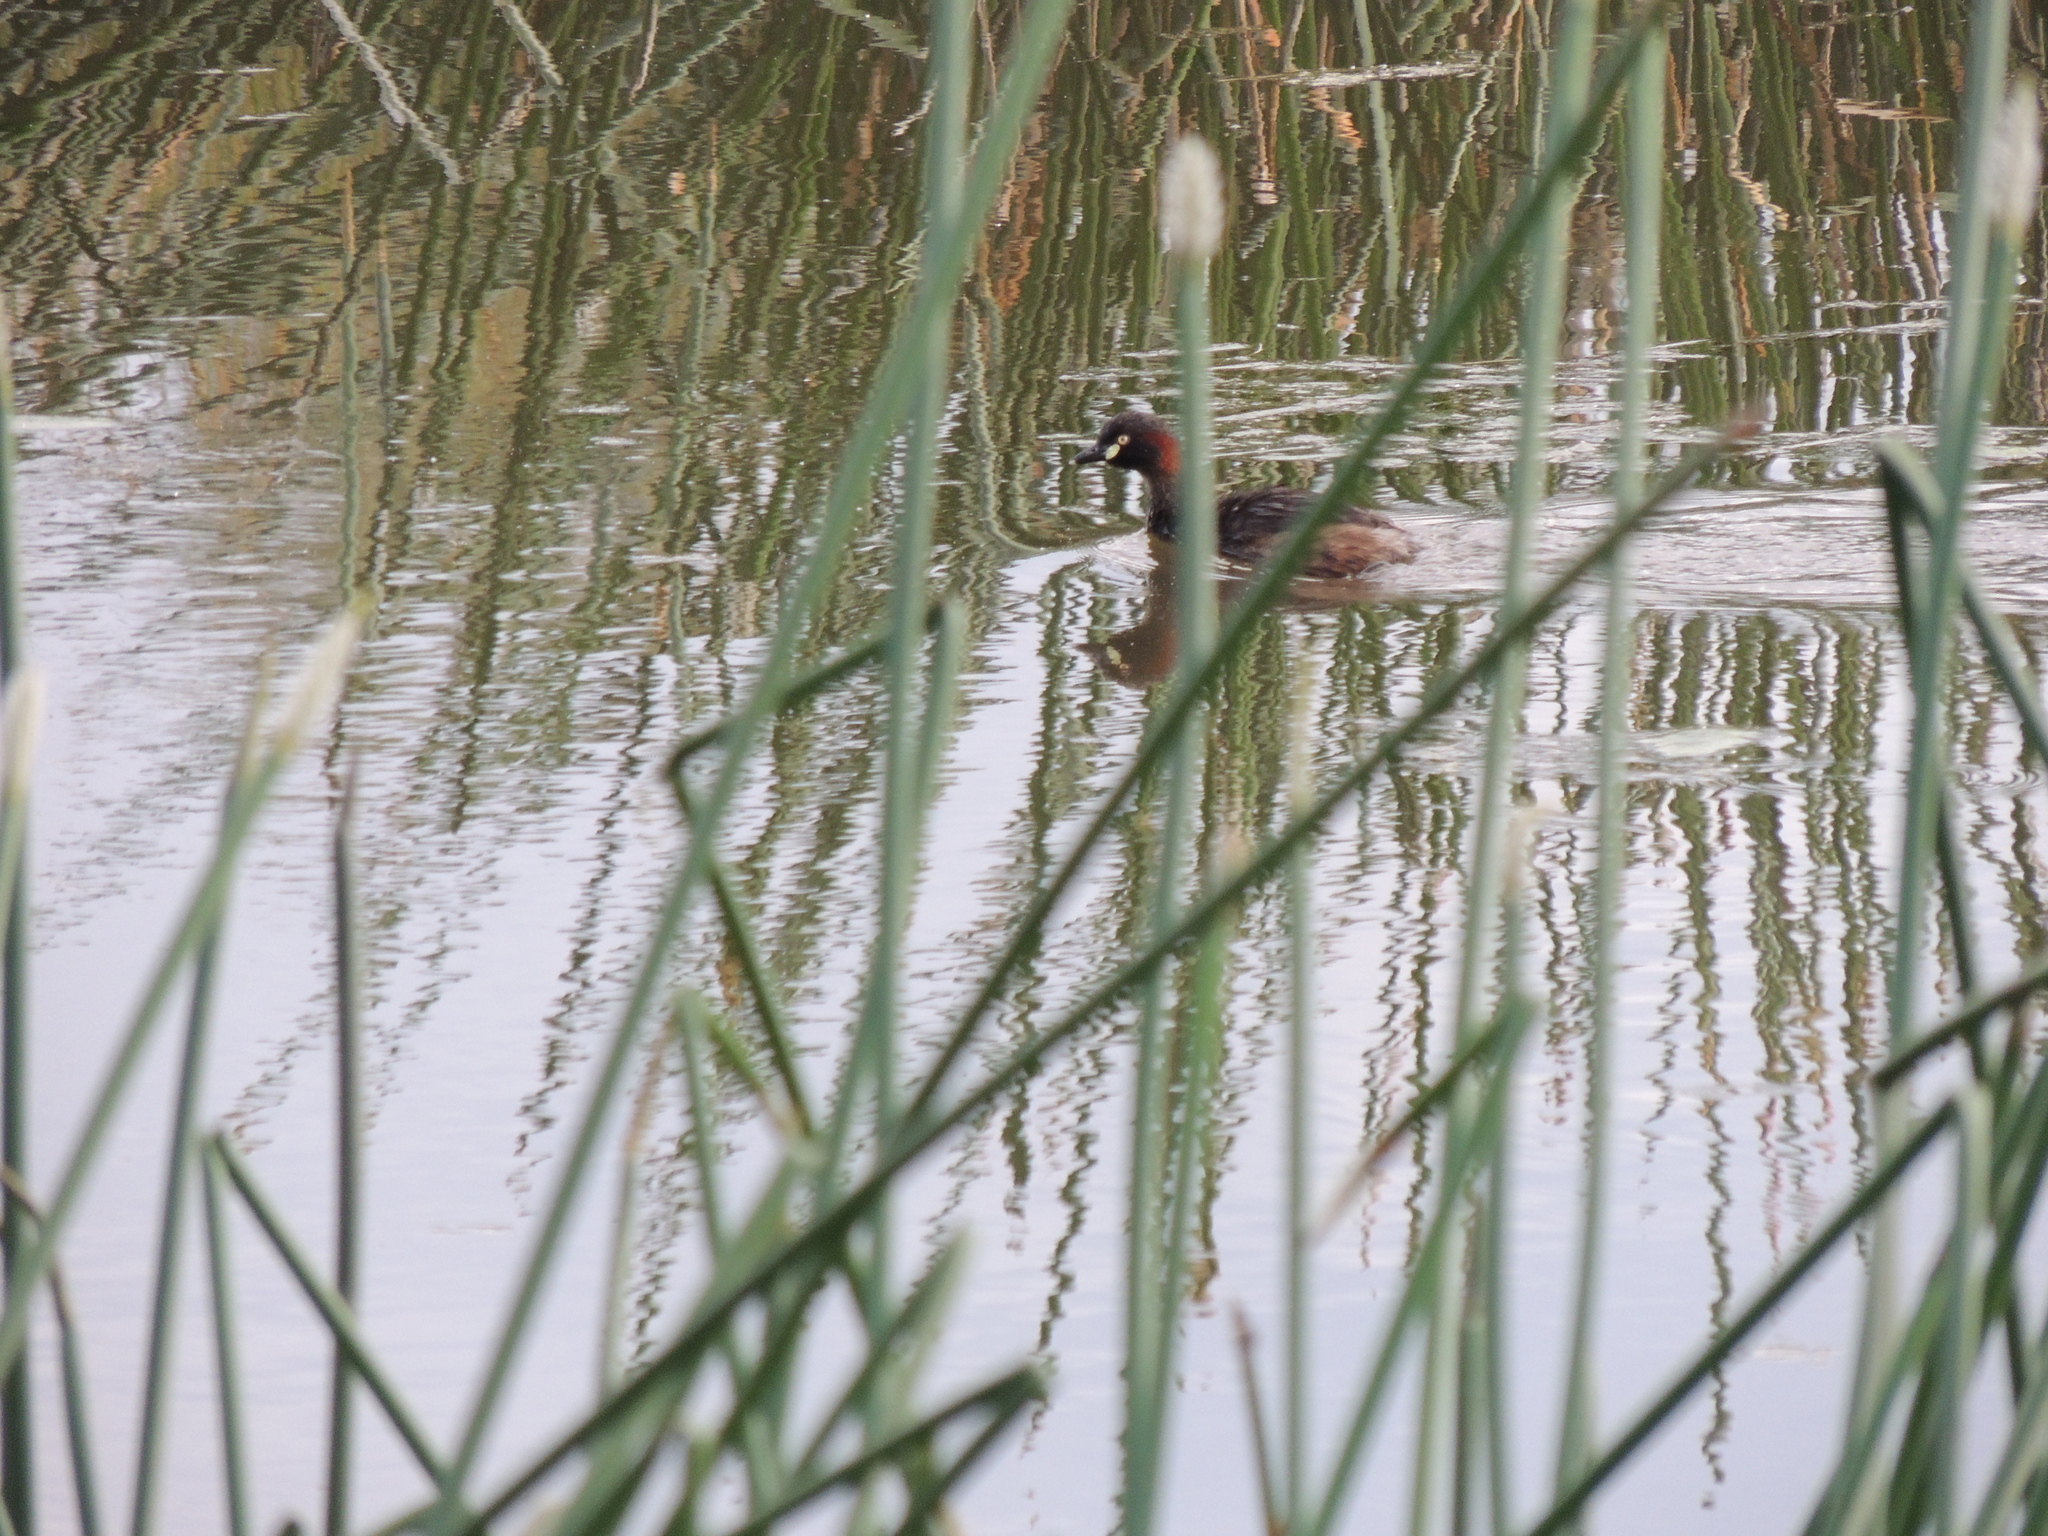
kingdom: Animalia
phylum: Chordata
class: Aves
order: Podicipediformes
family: Podicipedidae
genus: Tachybaptus
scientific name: Tachybaptus novaehollandiae
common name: Australasian grebe
